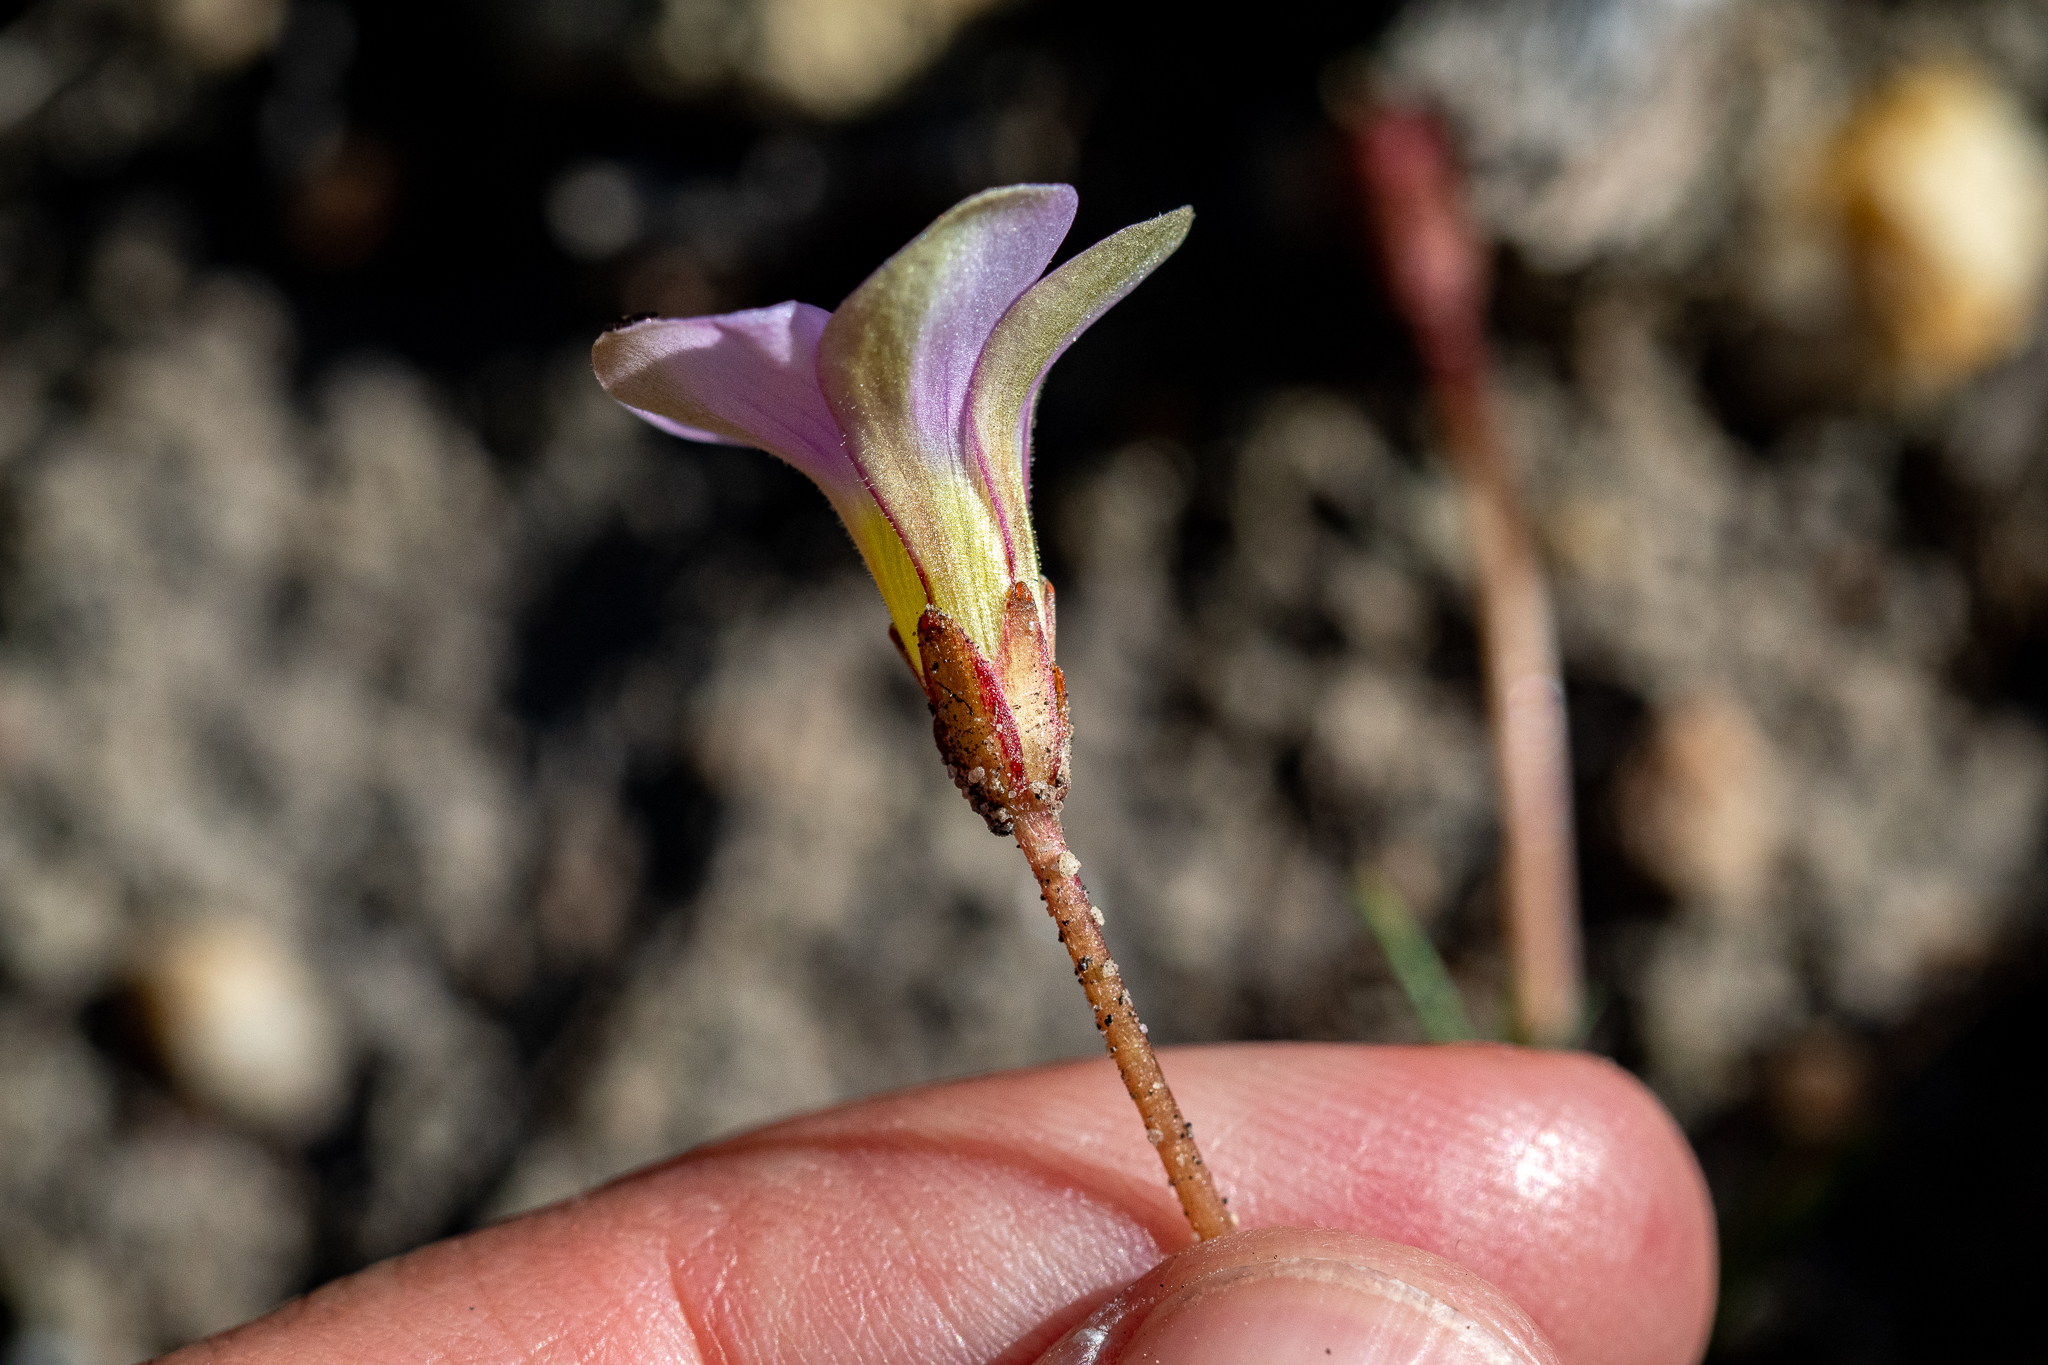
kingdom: Plantae
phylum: Tracheophyta
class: Magnoliopsida
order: Oxalidales
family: Oxalidaceae
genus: Oxalis
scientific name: Oxalis polyphylla
